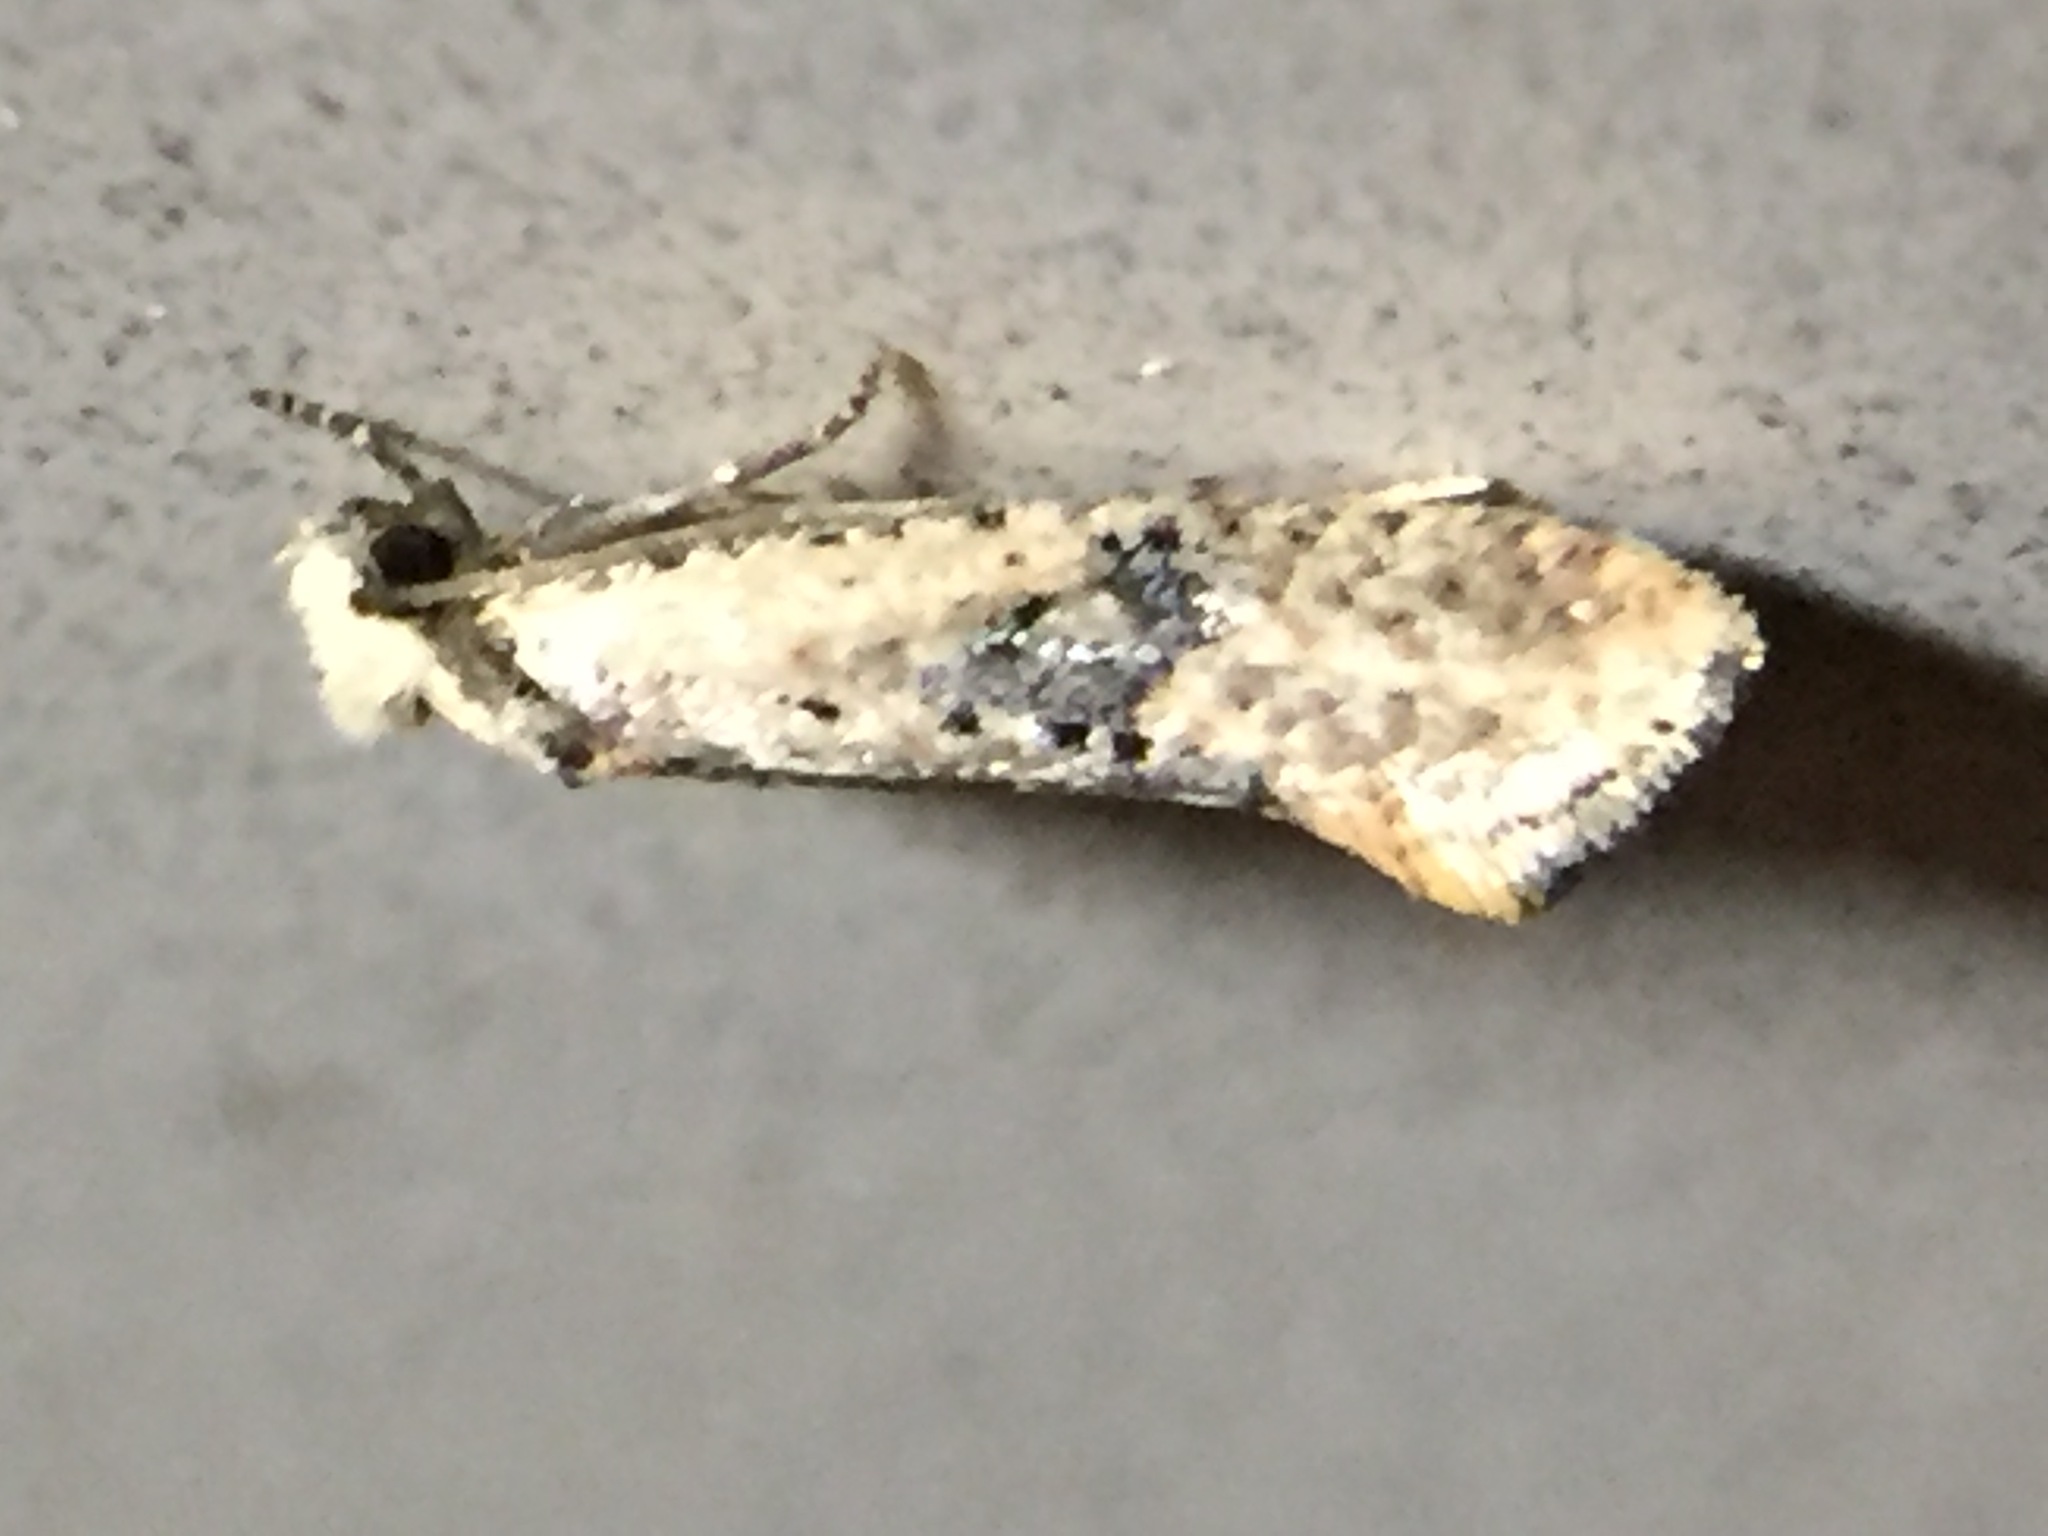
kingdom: Animalia
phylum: Arthropoda
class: Insecta
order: Lepidoptera
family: Tineidae
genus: Monopis
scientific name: Monopis argillacea
